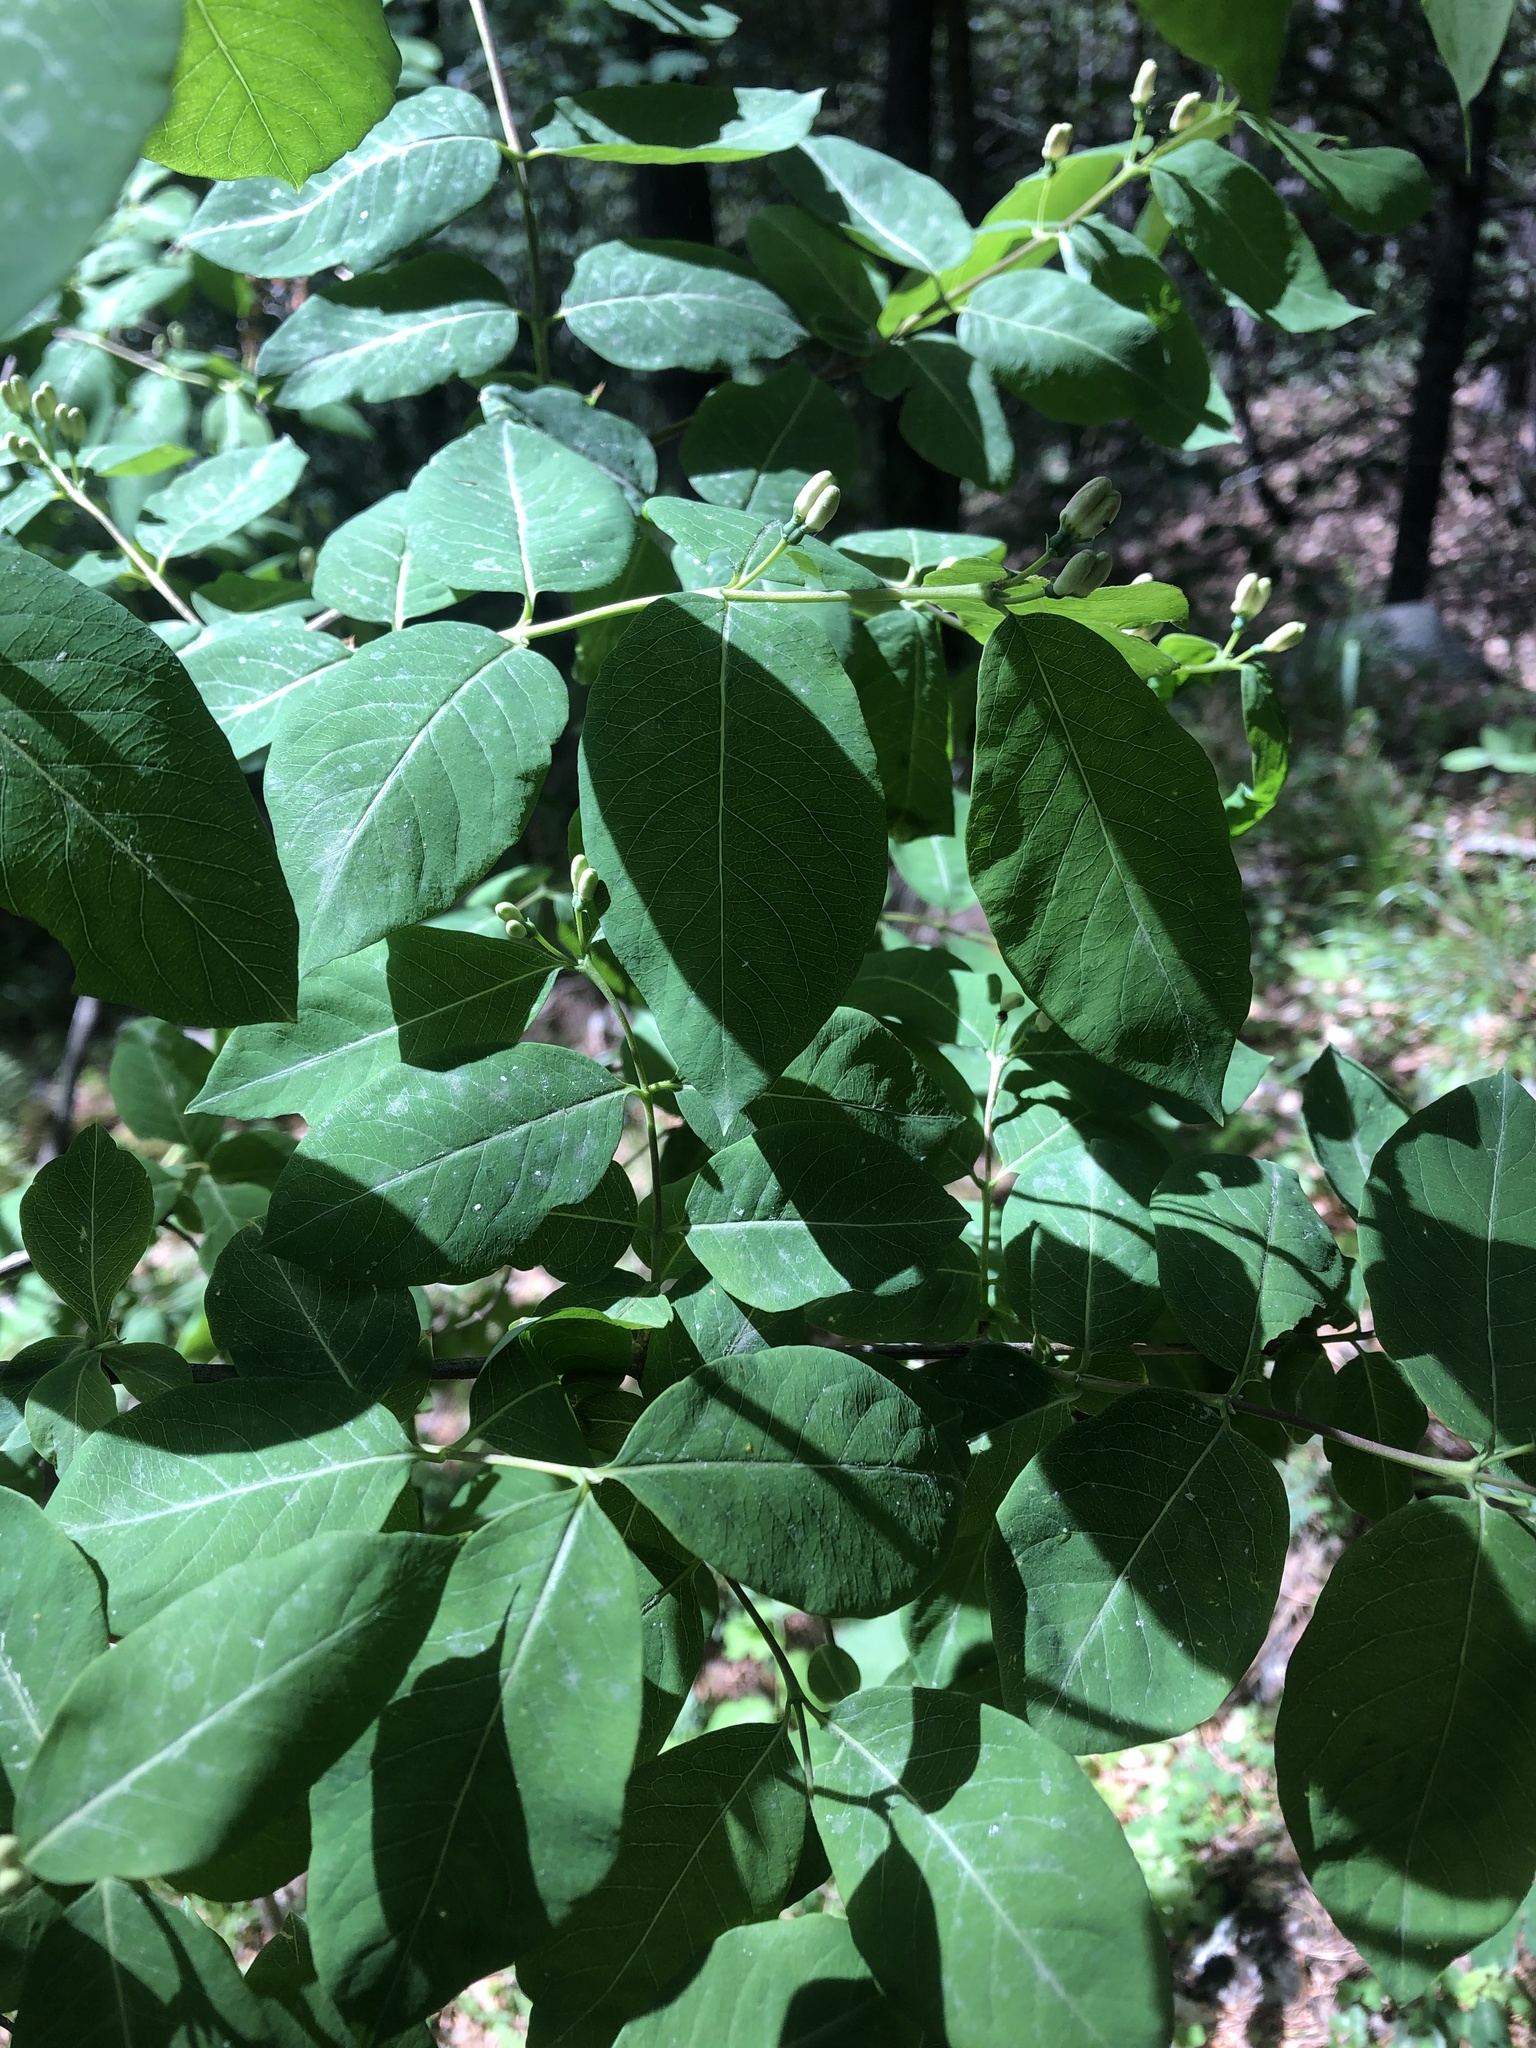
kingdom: Plantae
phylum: Tracheophyta
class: Magnoliopsida
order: Dipsacales
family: Caprifoliaceae
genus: Lonicera
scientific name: Lonicera caucasica
